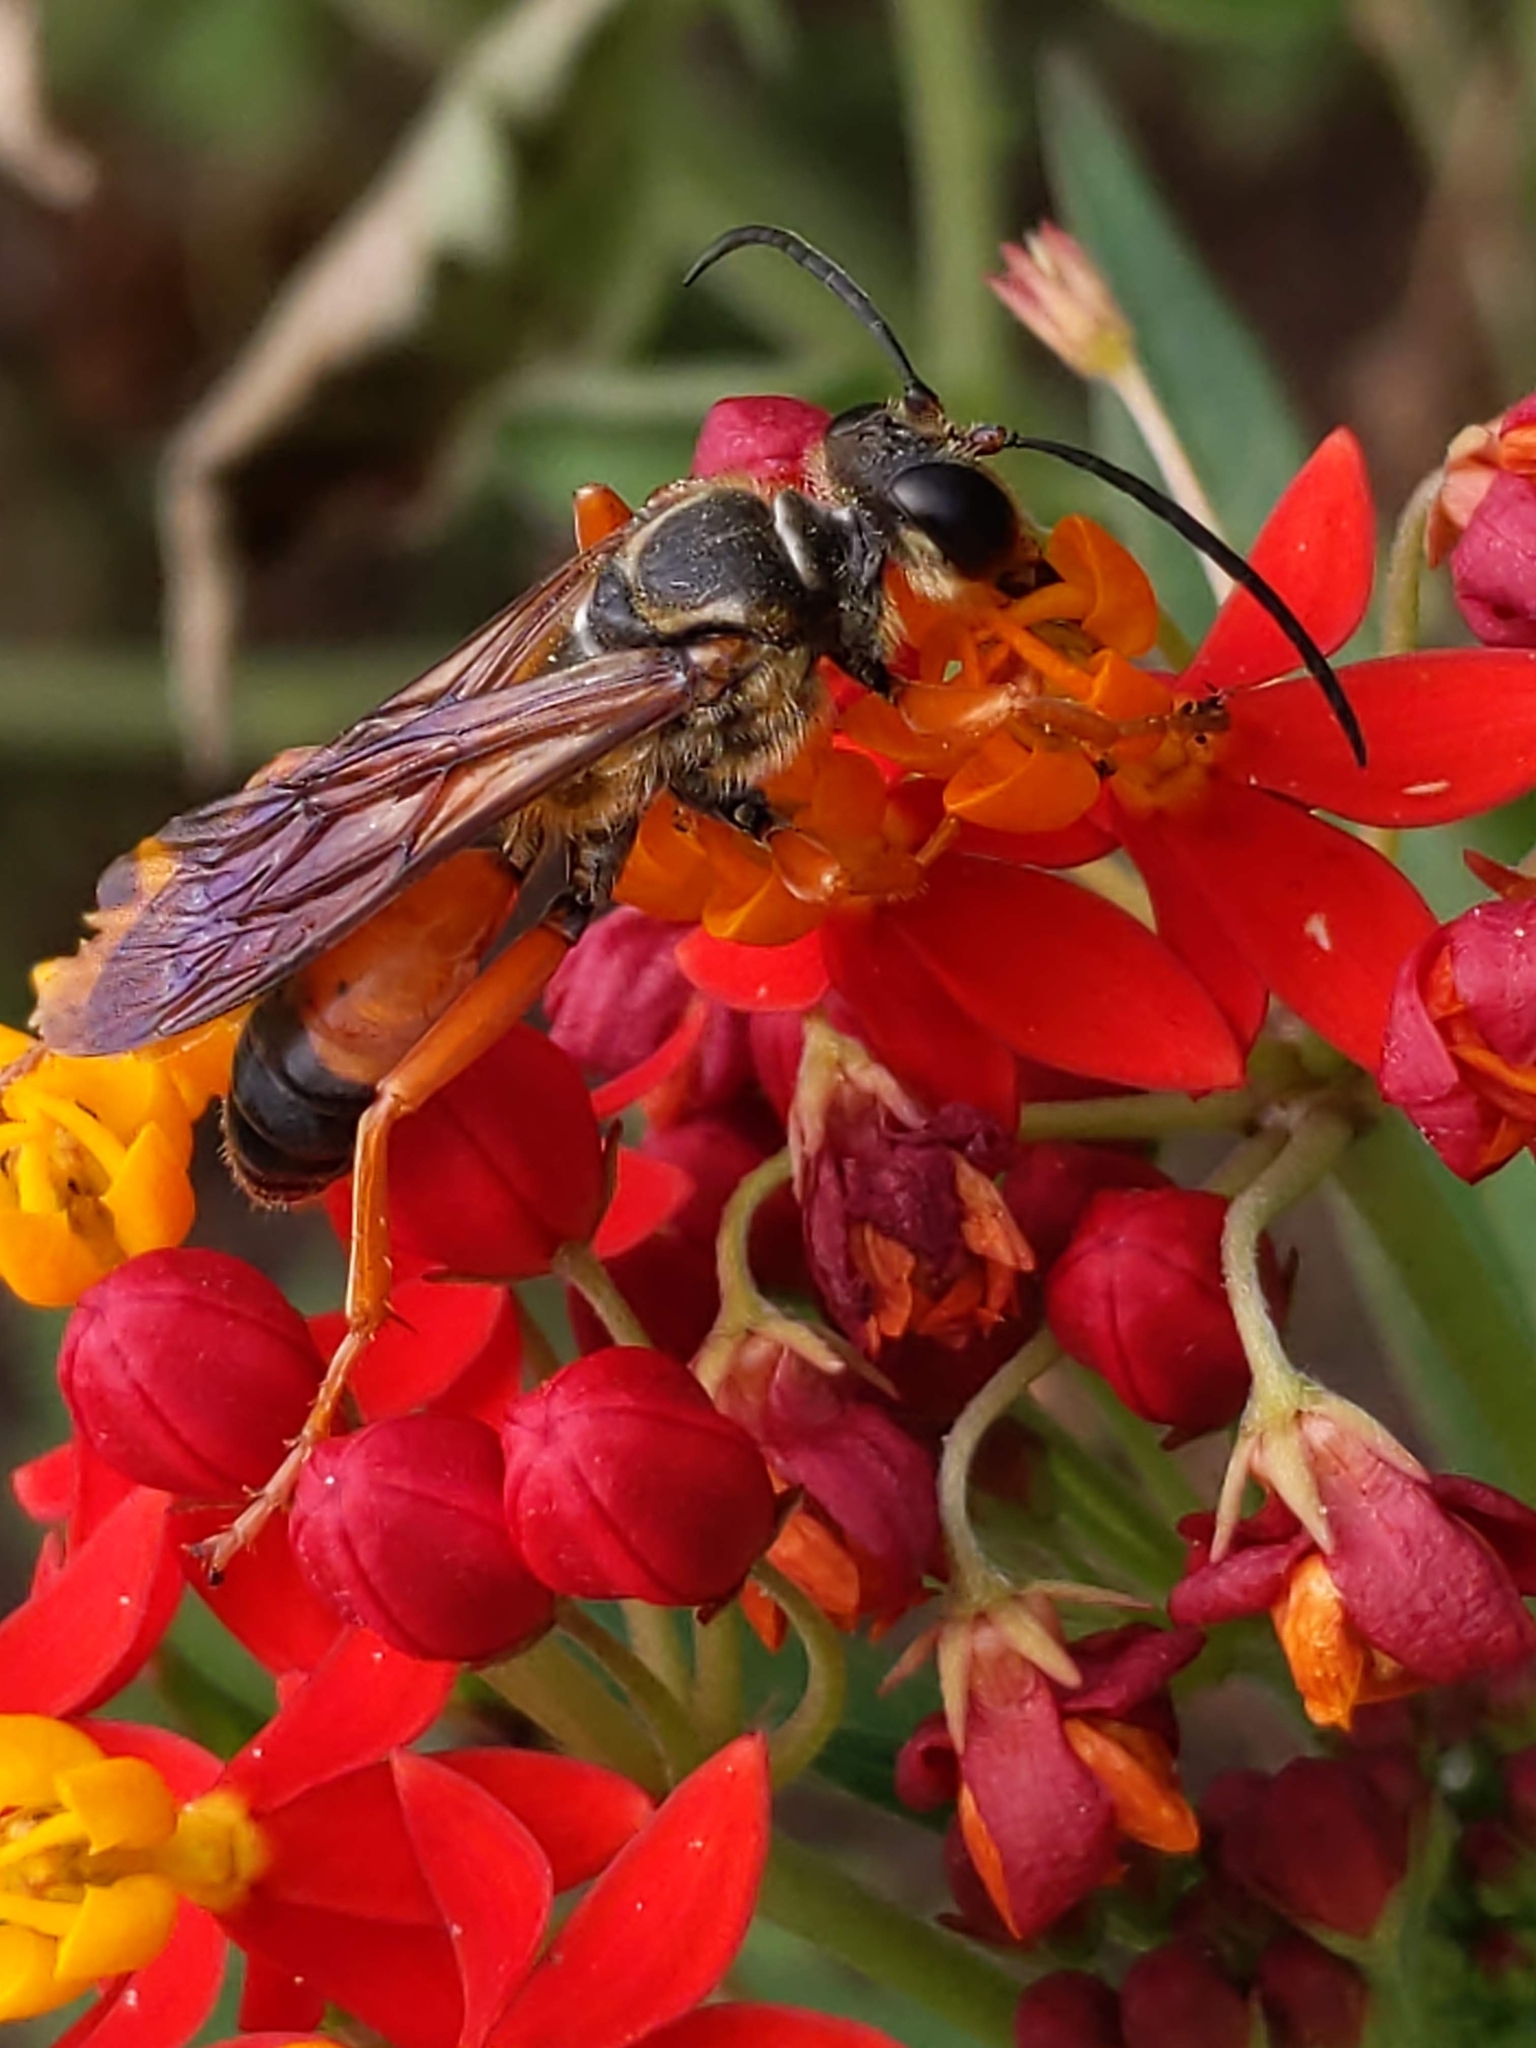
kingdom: Animalia
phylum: Arthropoda
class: Insecta
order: Hymenoptera
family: Sphecidae
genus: Sphex
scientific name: Sphex ichneumoneus
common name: Great golden digger wasp
